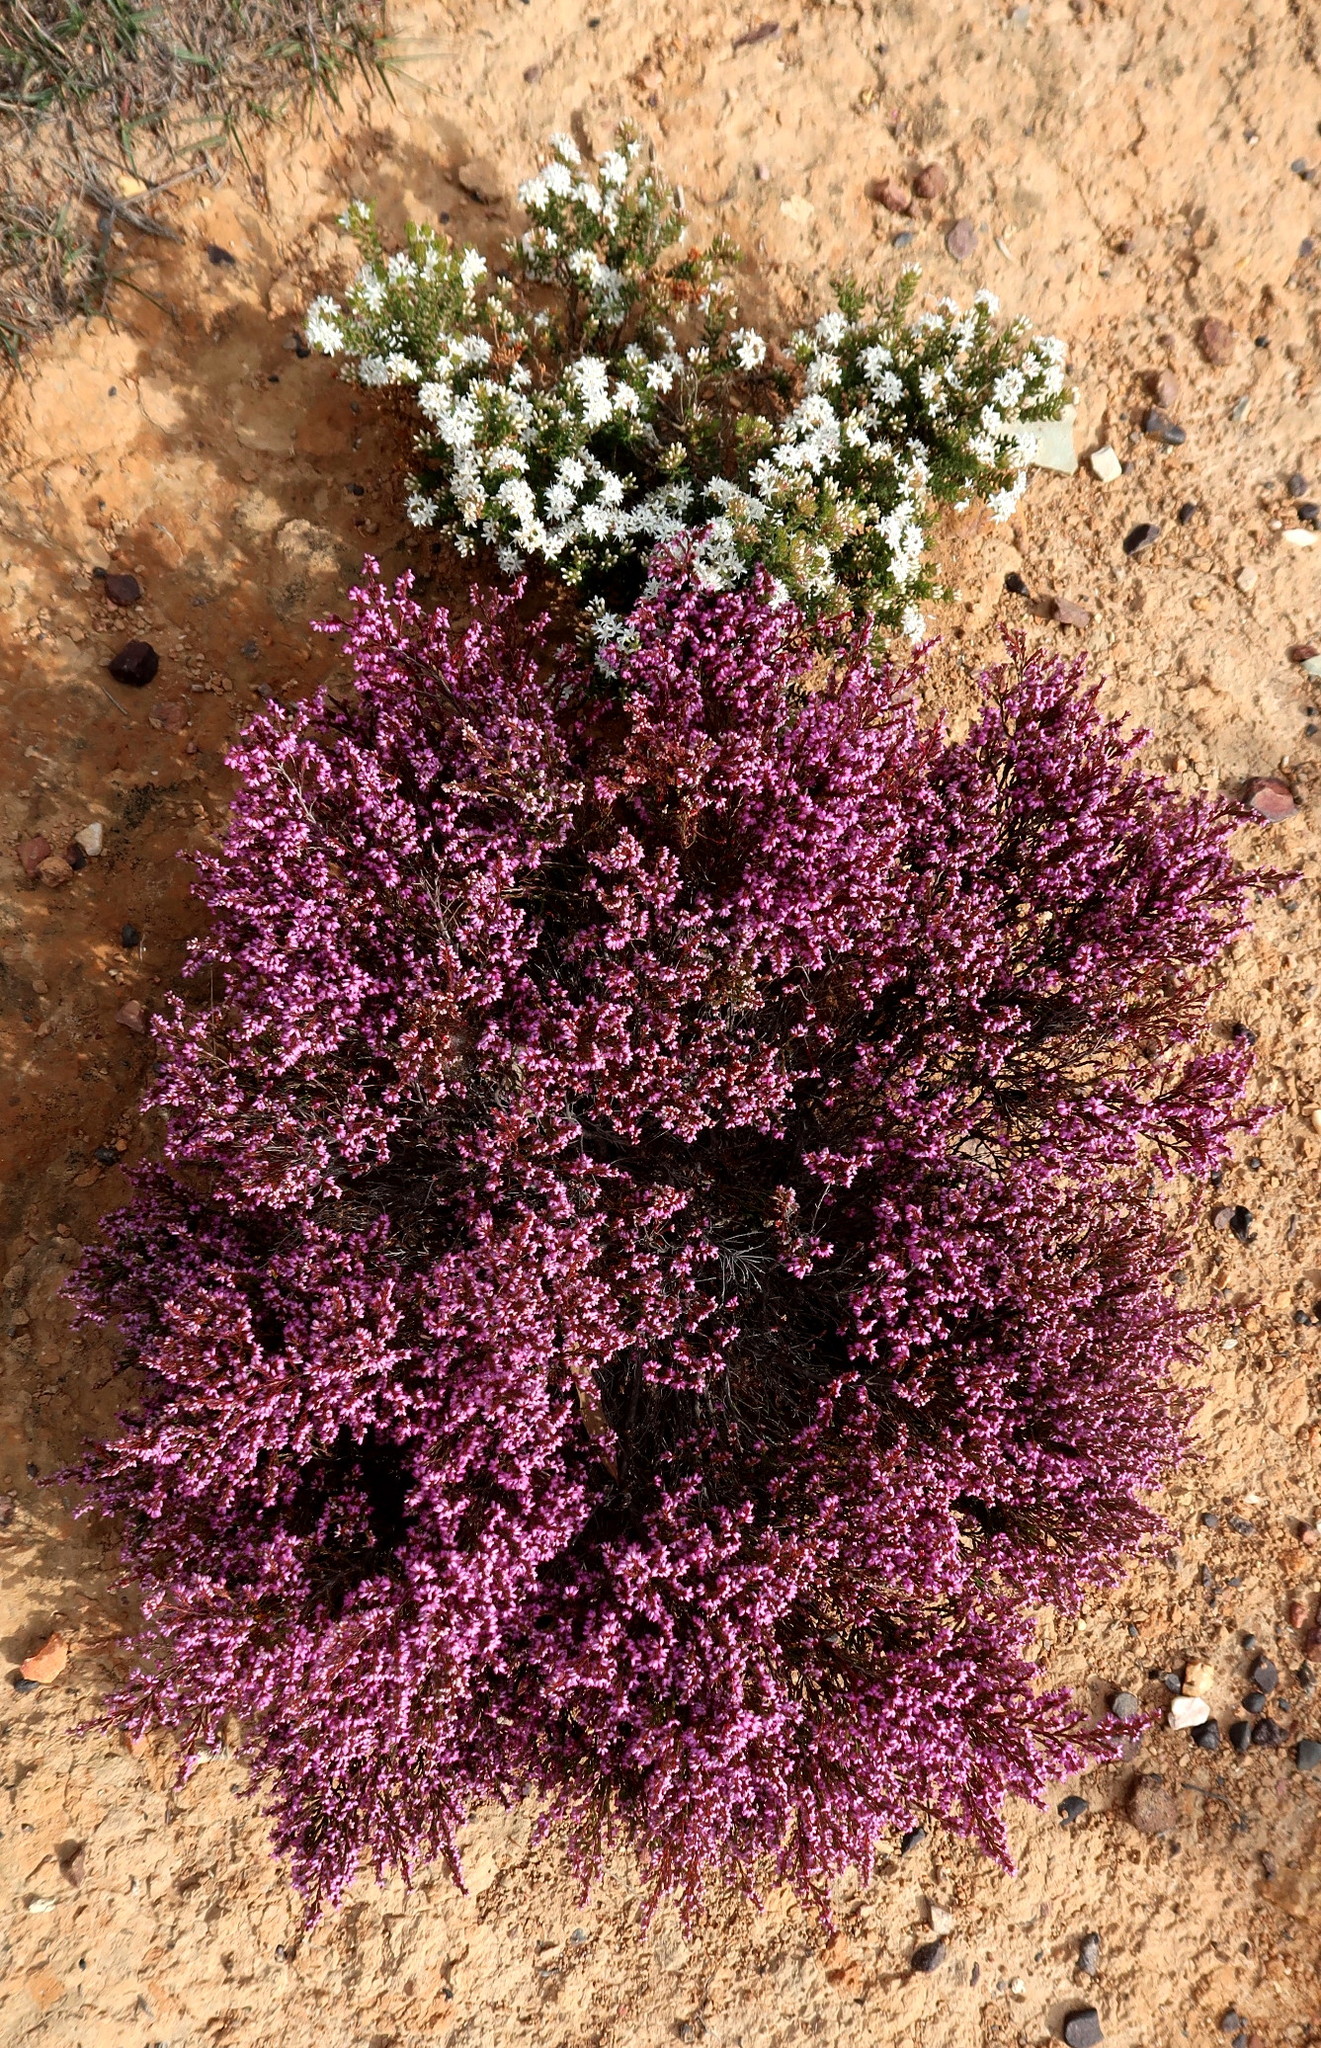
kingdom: Plantae
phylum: Tracheophyta
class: Magnoliopsida
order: Sapindales
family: Rutaceae
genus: Agathosma
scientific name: Agathosma mundtii
